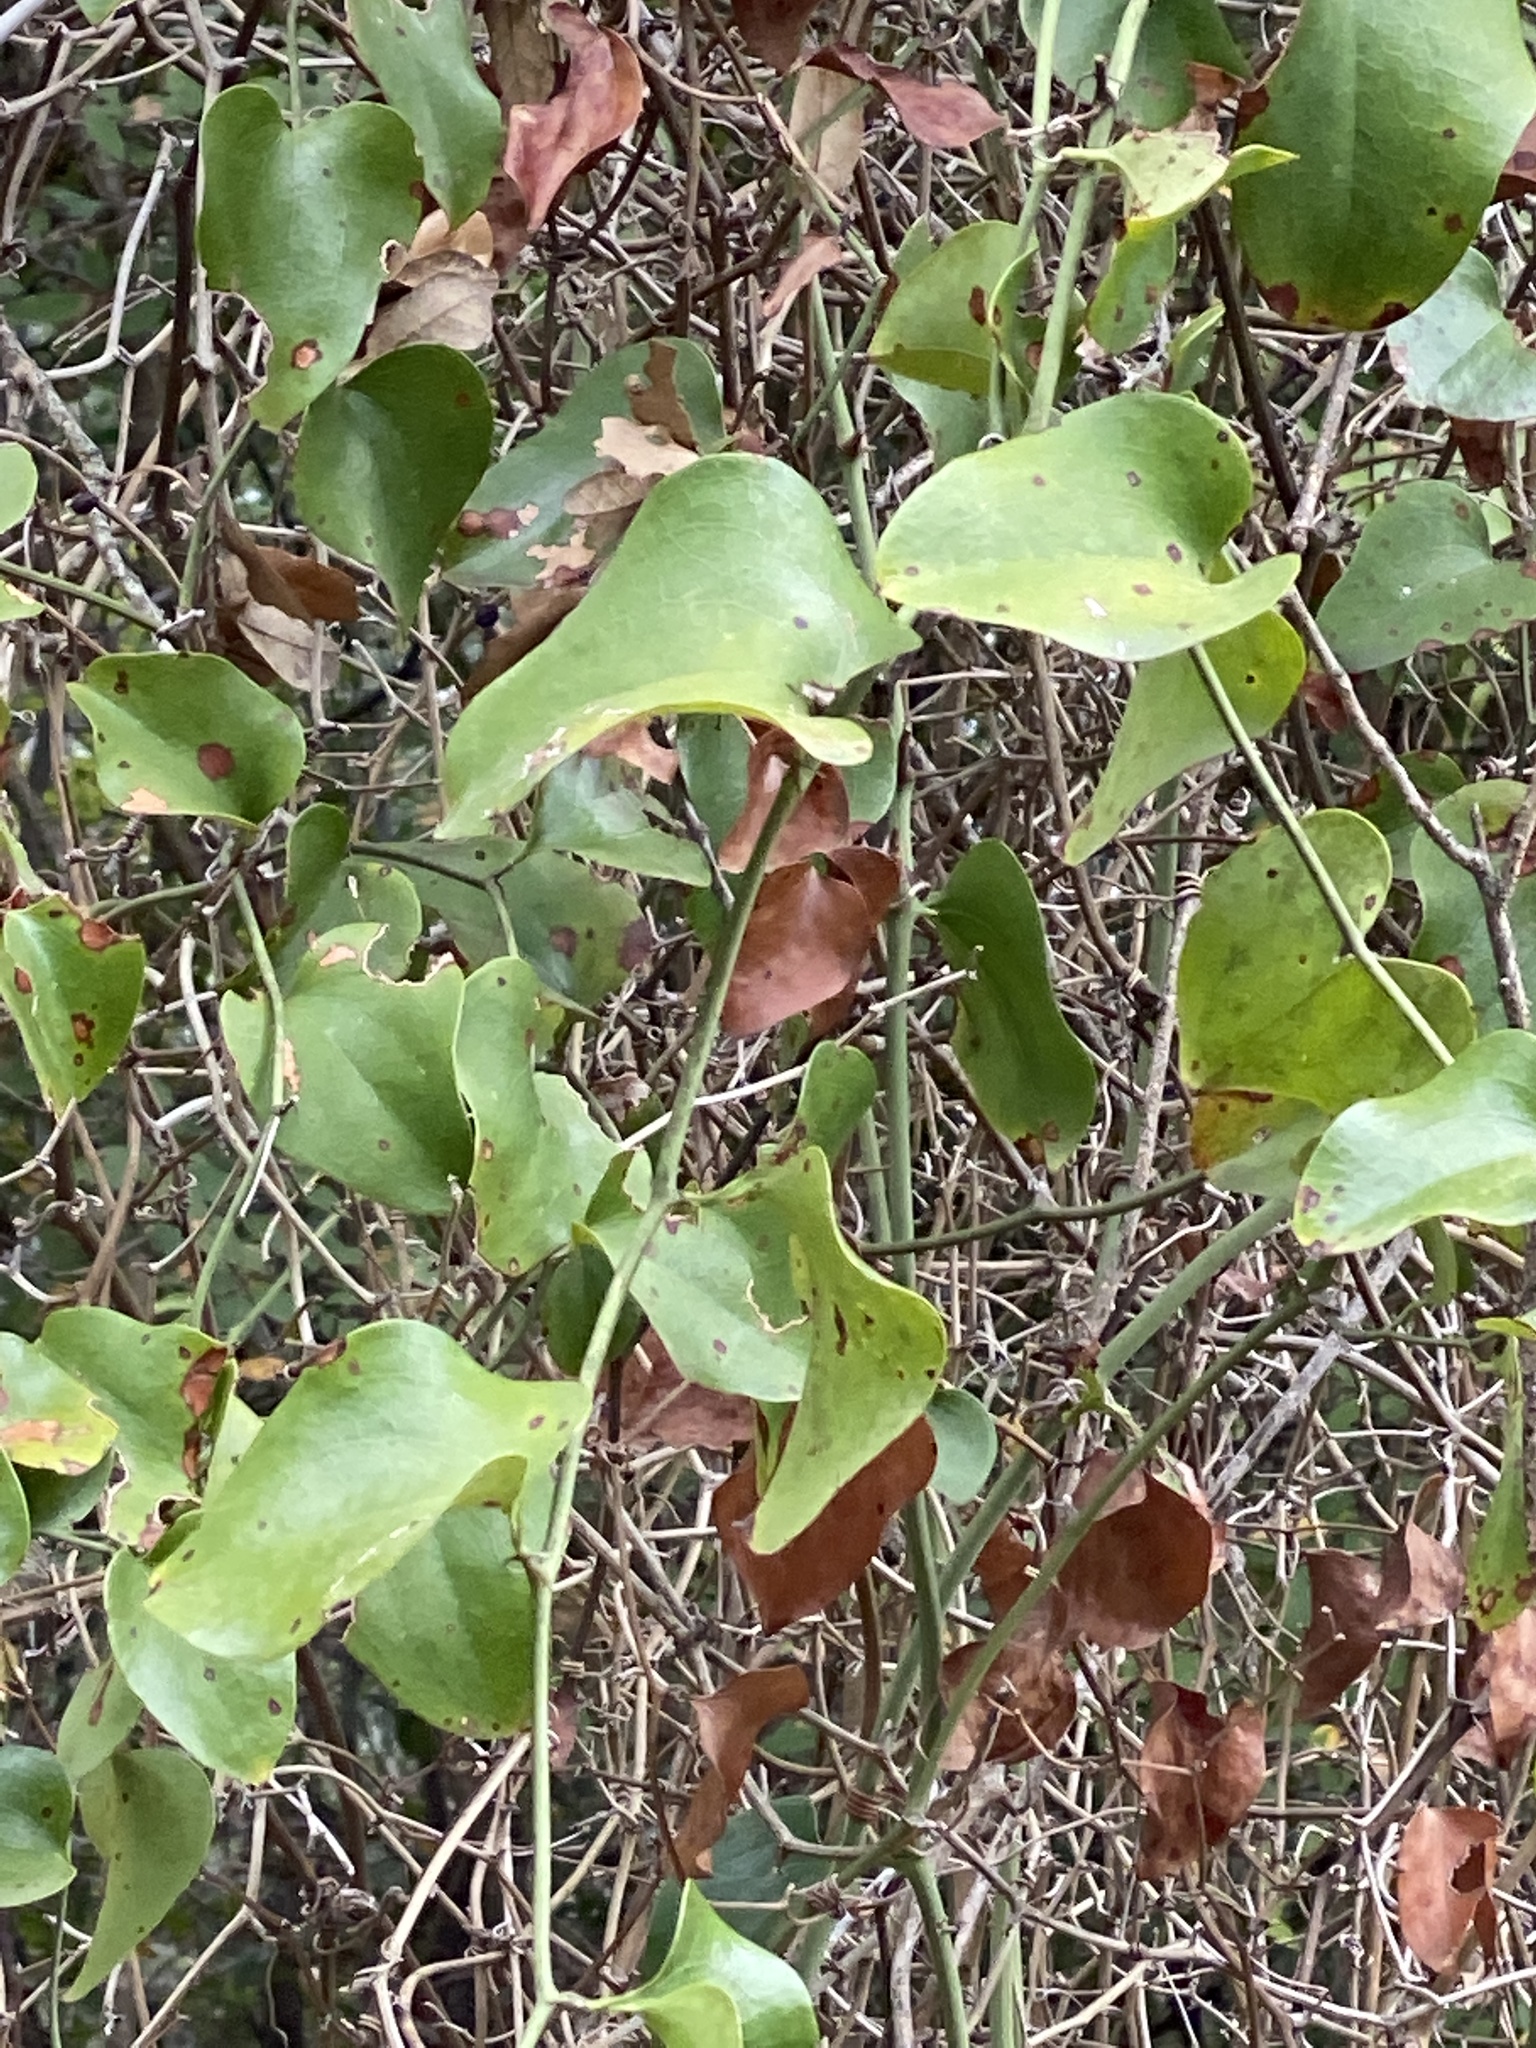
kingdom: Plantae
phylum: Tracheophyta
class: Liliopsida
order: Liliales
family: Smilacaceae
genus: Smilax
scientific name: Smilax bona-nox
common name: Catbrier
